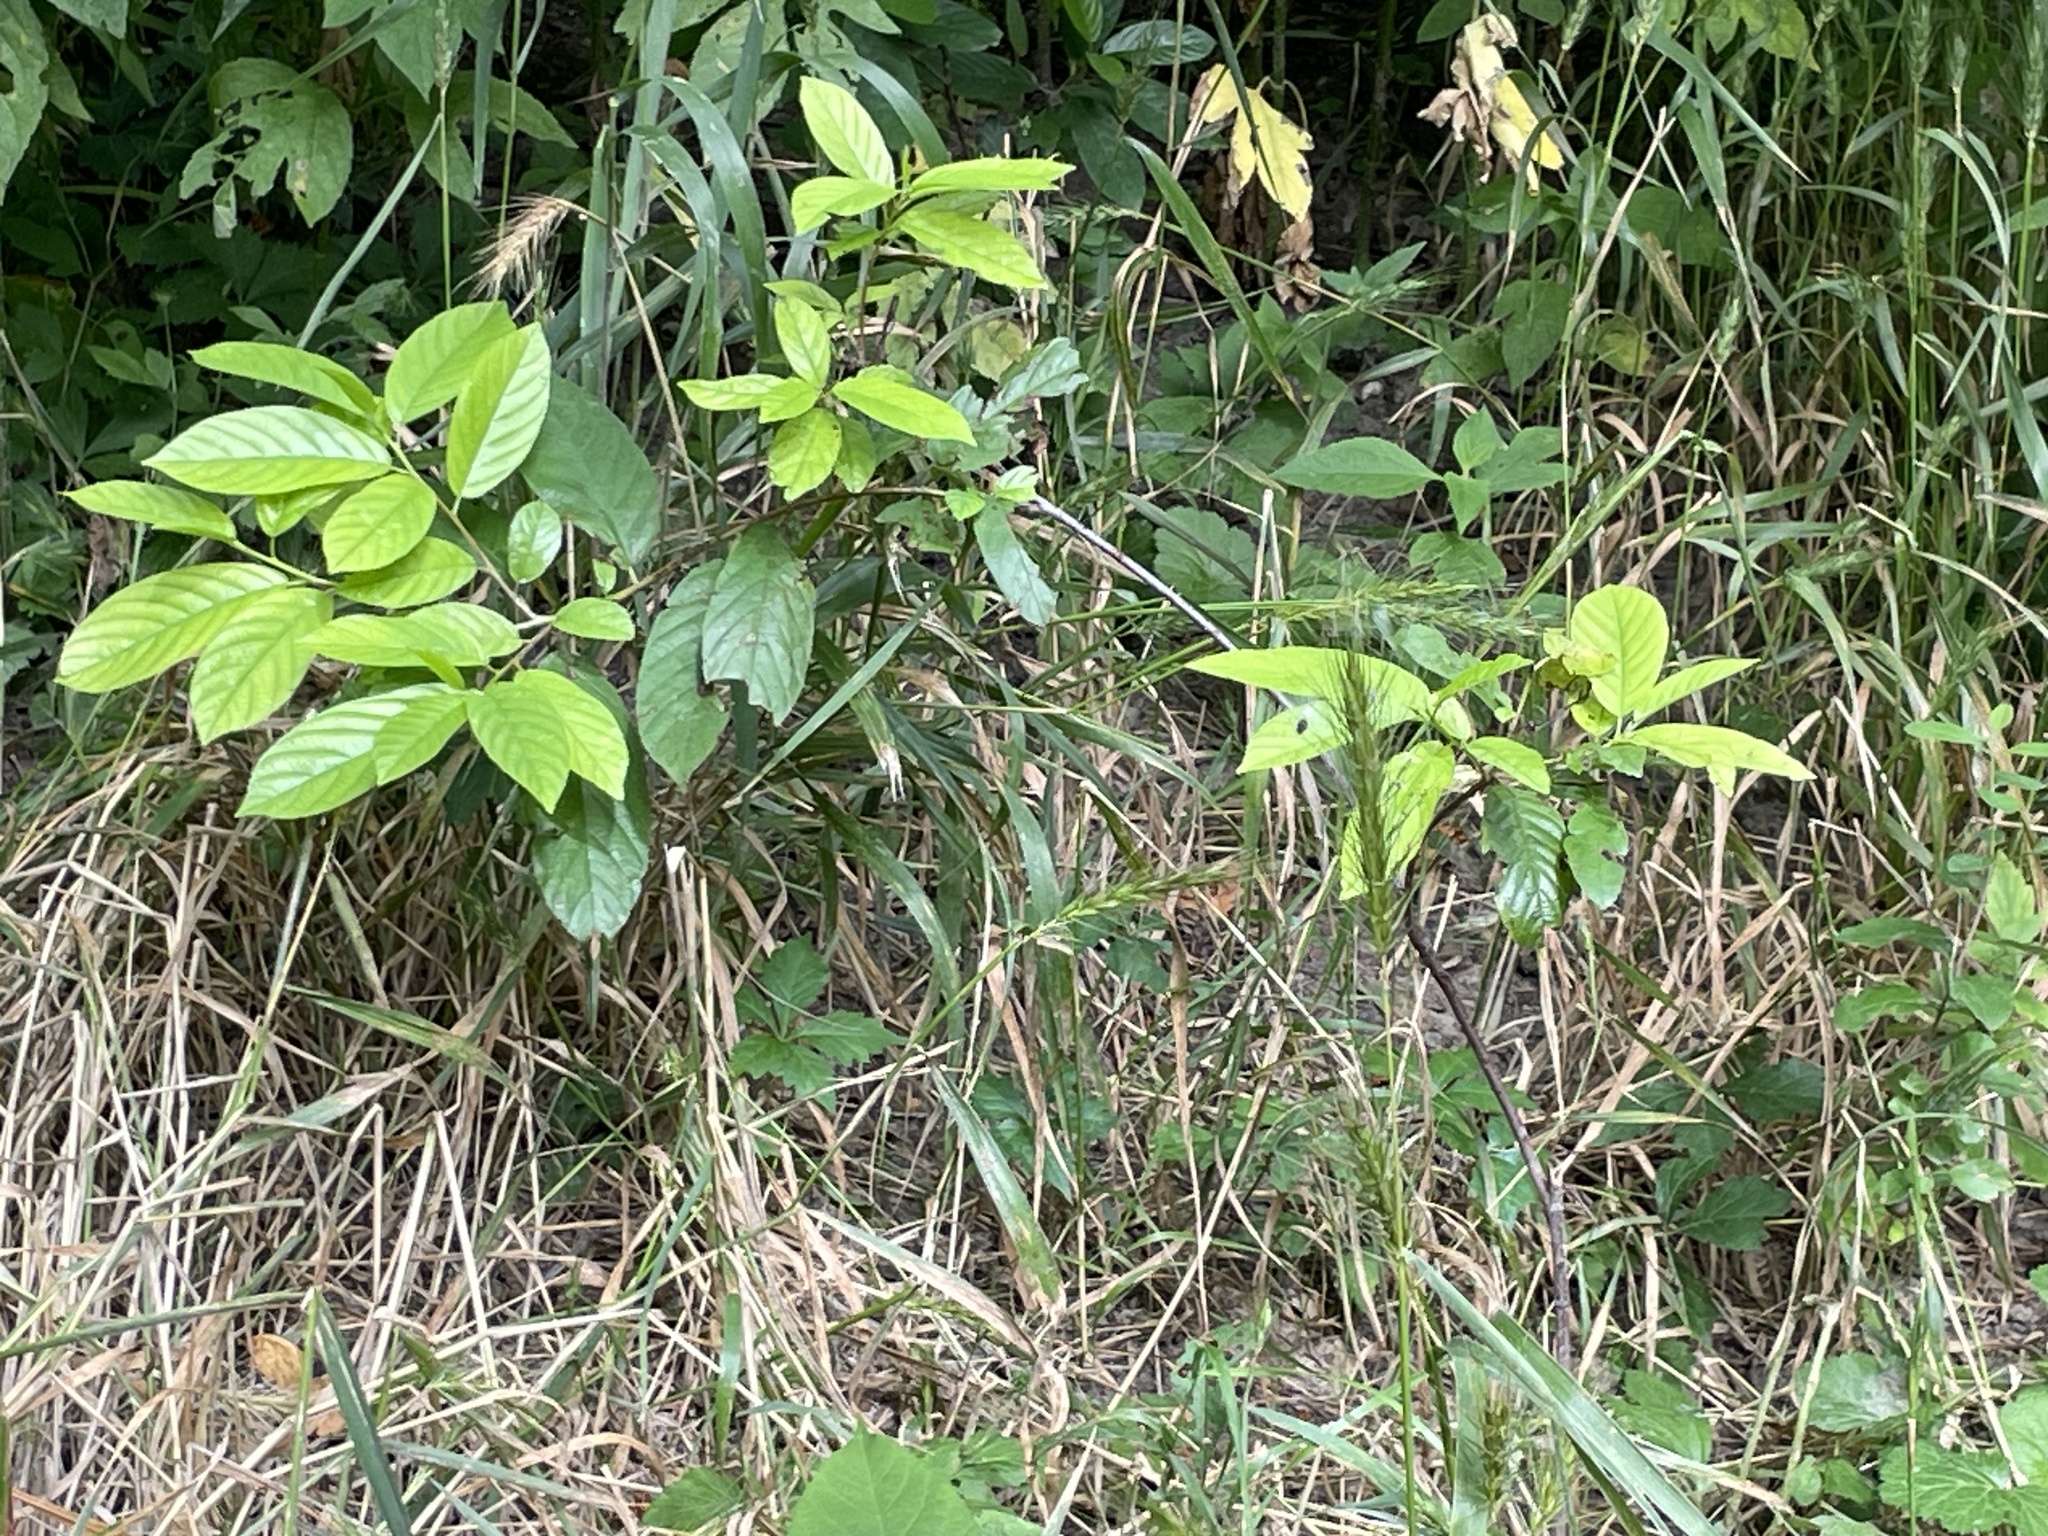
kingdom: Plantae
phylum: Tracheophyta
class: Magnoliopsida
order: Rosales
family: Rhamnaceae
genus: Frangula
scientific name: Frangula caroliniana
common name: Carolina buckthorn
